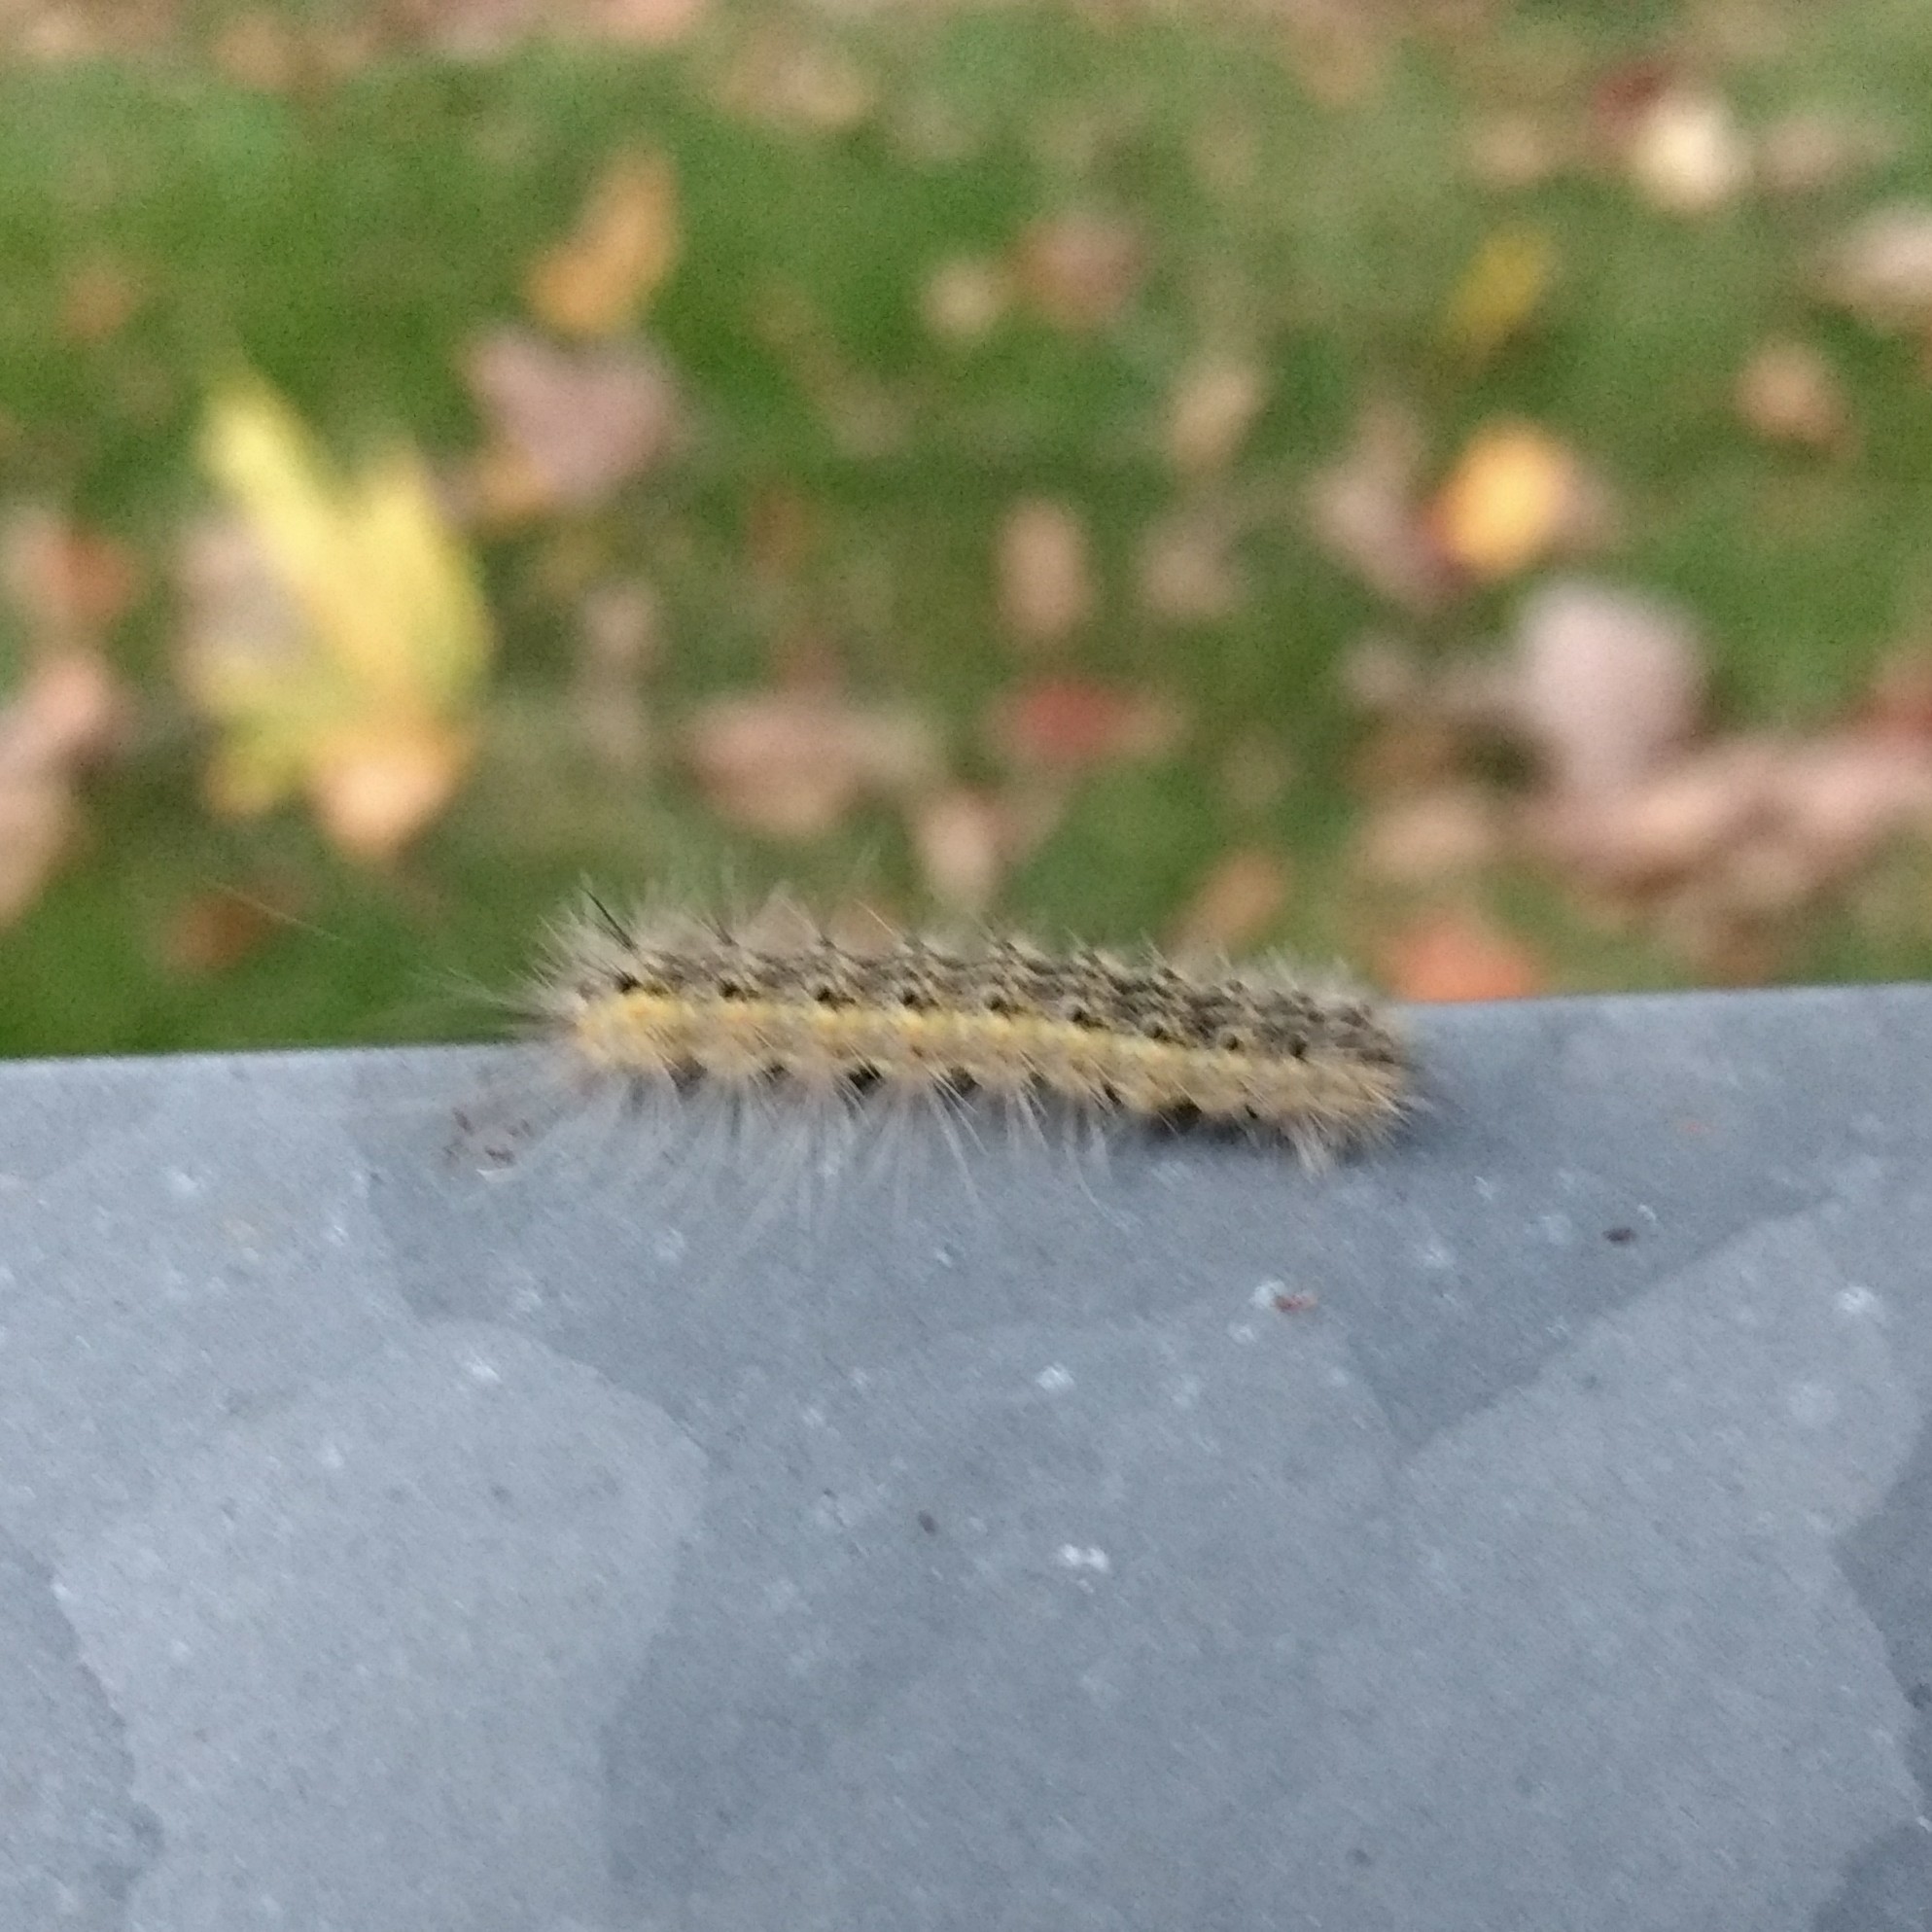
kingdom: Animalia
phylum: Arthropoda
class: Insecta
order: Lepidoptera
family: Erebidae
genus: Hyphantria
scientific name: Hyphantria cunea
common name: American white moth
